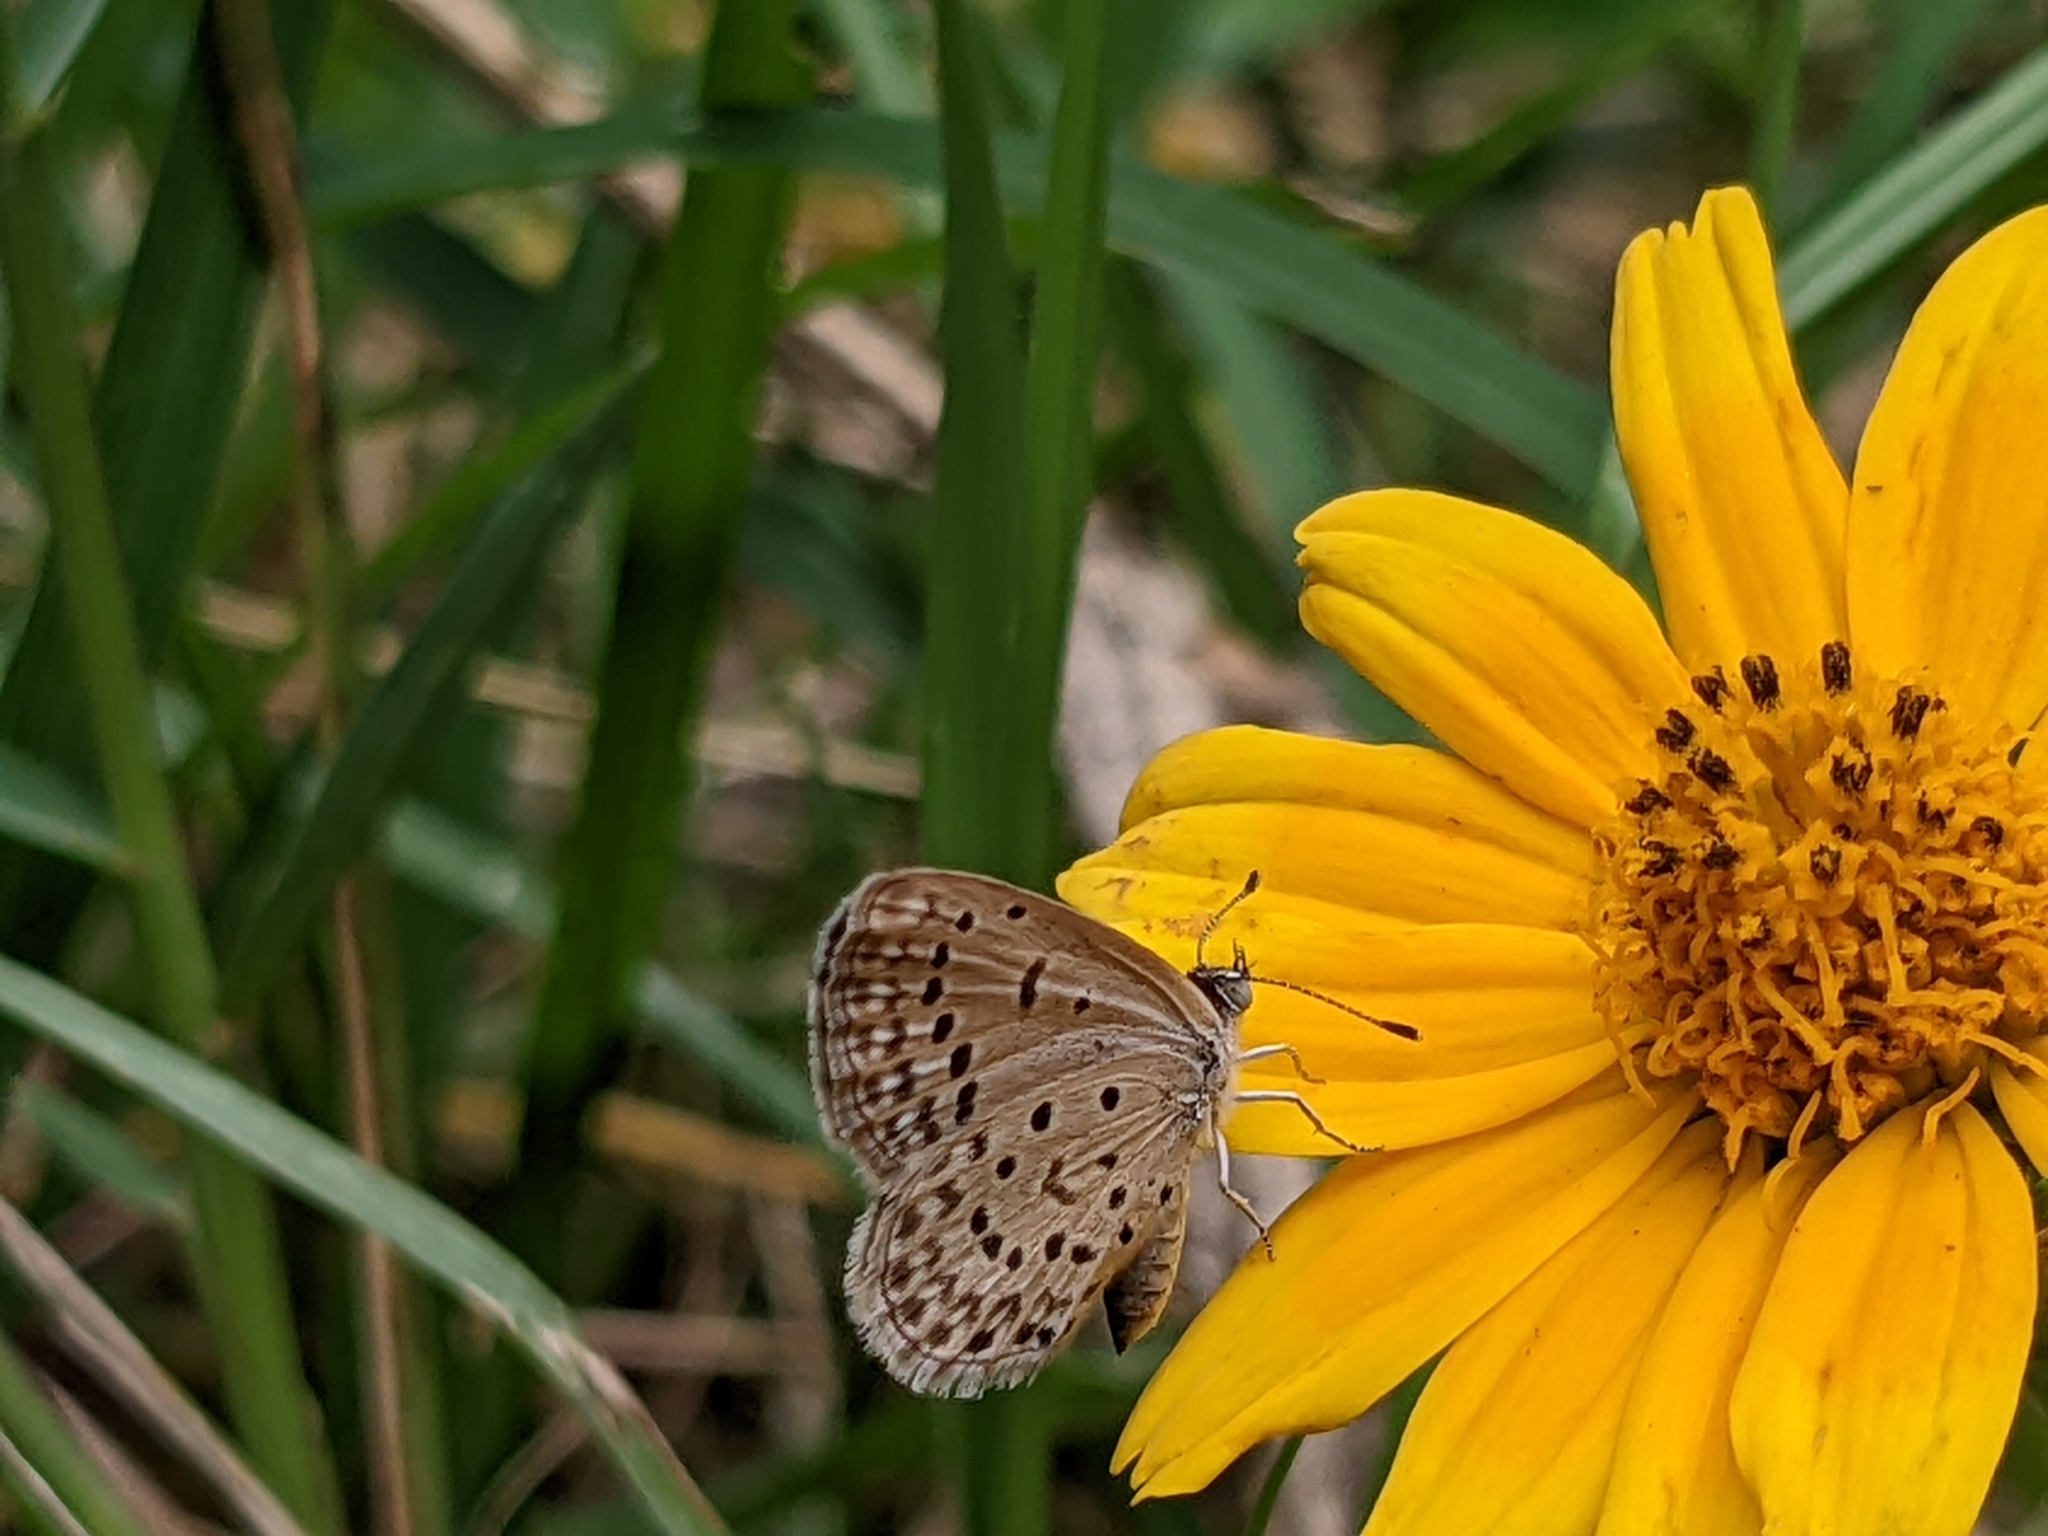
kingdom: Animalia
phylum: Arthropoda
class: Insecta
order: Lepidoptera
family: Lycaenidae
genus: Zizeeria
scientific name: Zizeeria knysna
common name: African grass blue
